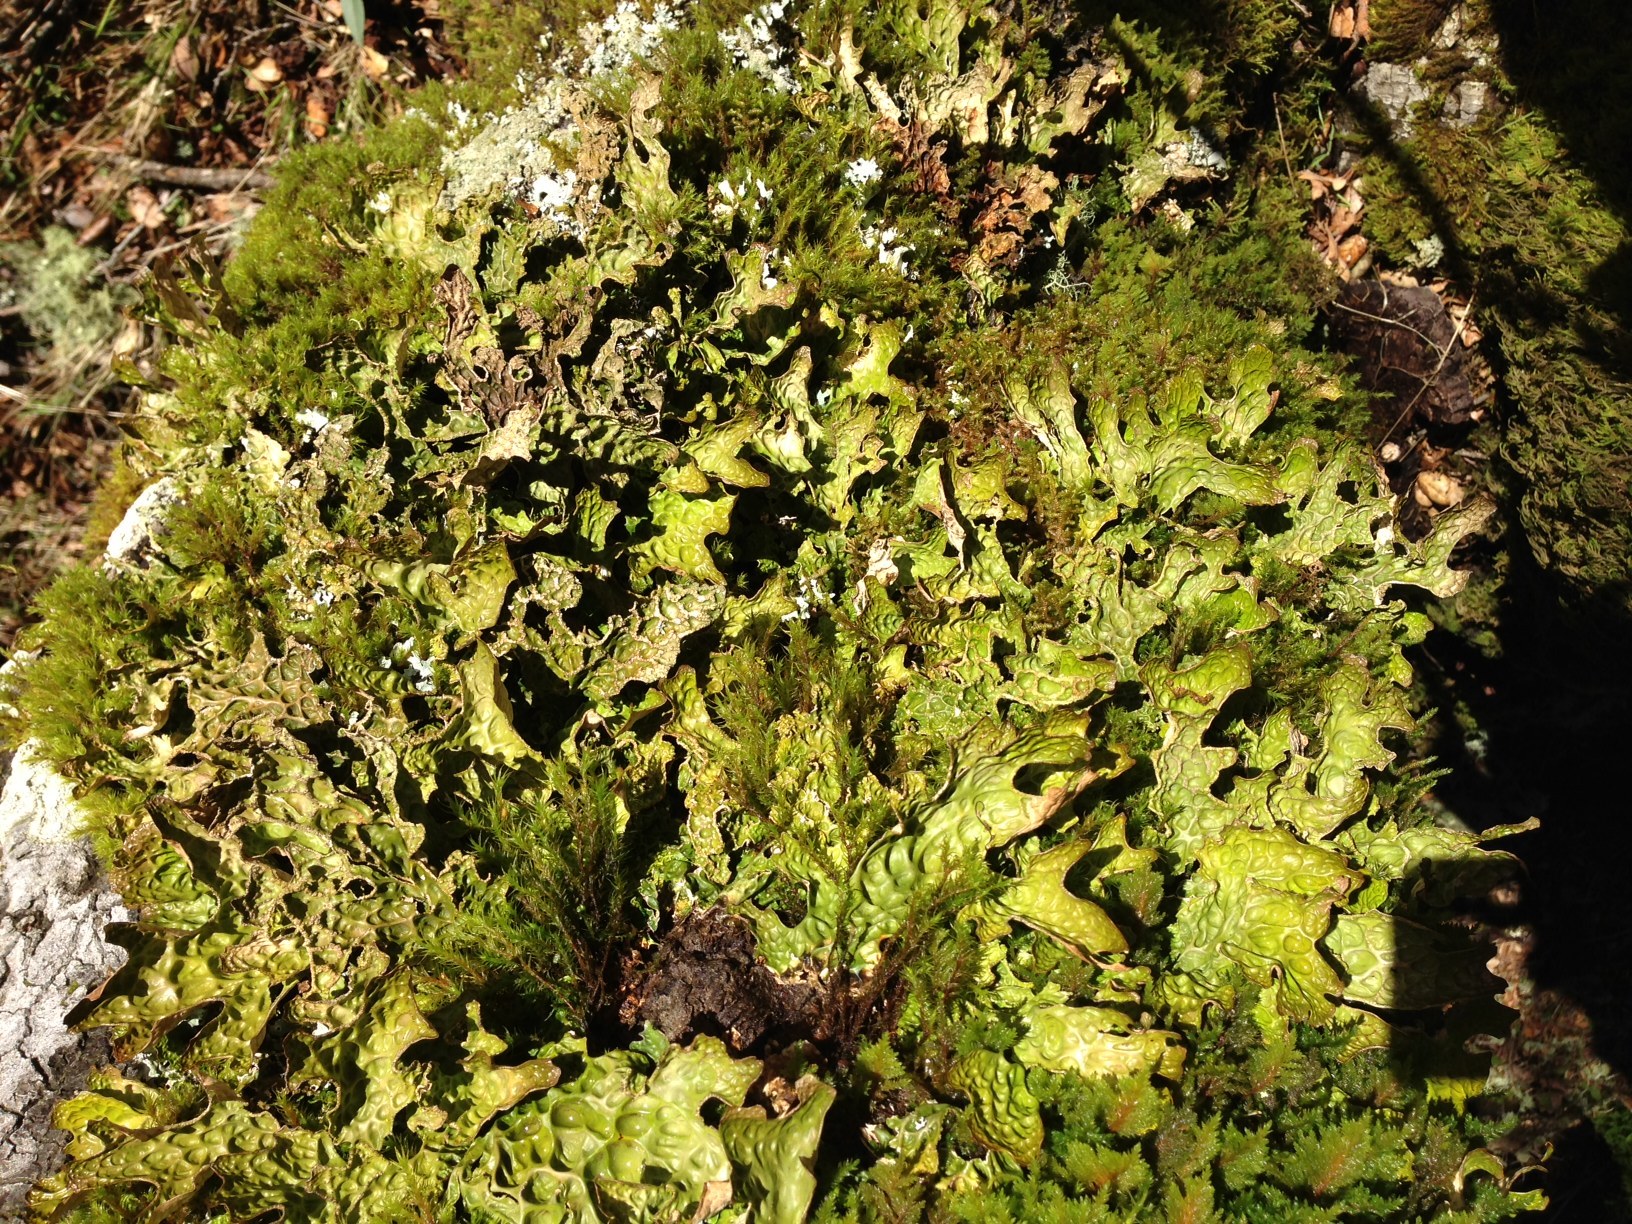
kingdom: Fungi
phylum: Ascomycota
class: Lecanoromycetes
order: Peltigerales
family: Lobariaceae
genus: Lobaria
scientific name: Lobaria pulmonaria
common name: Lungwort
